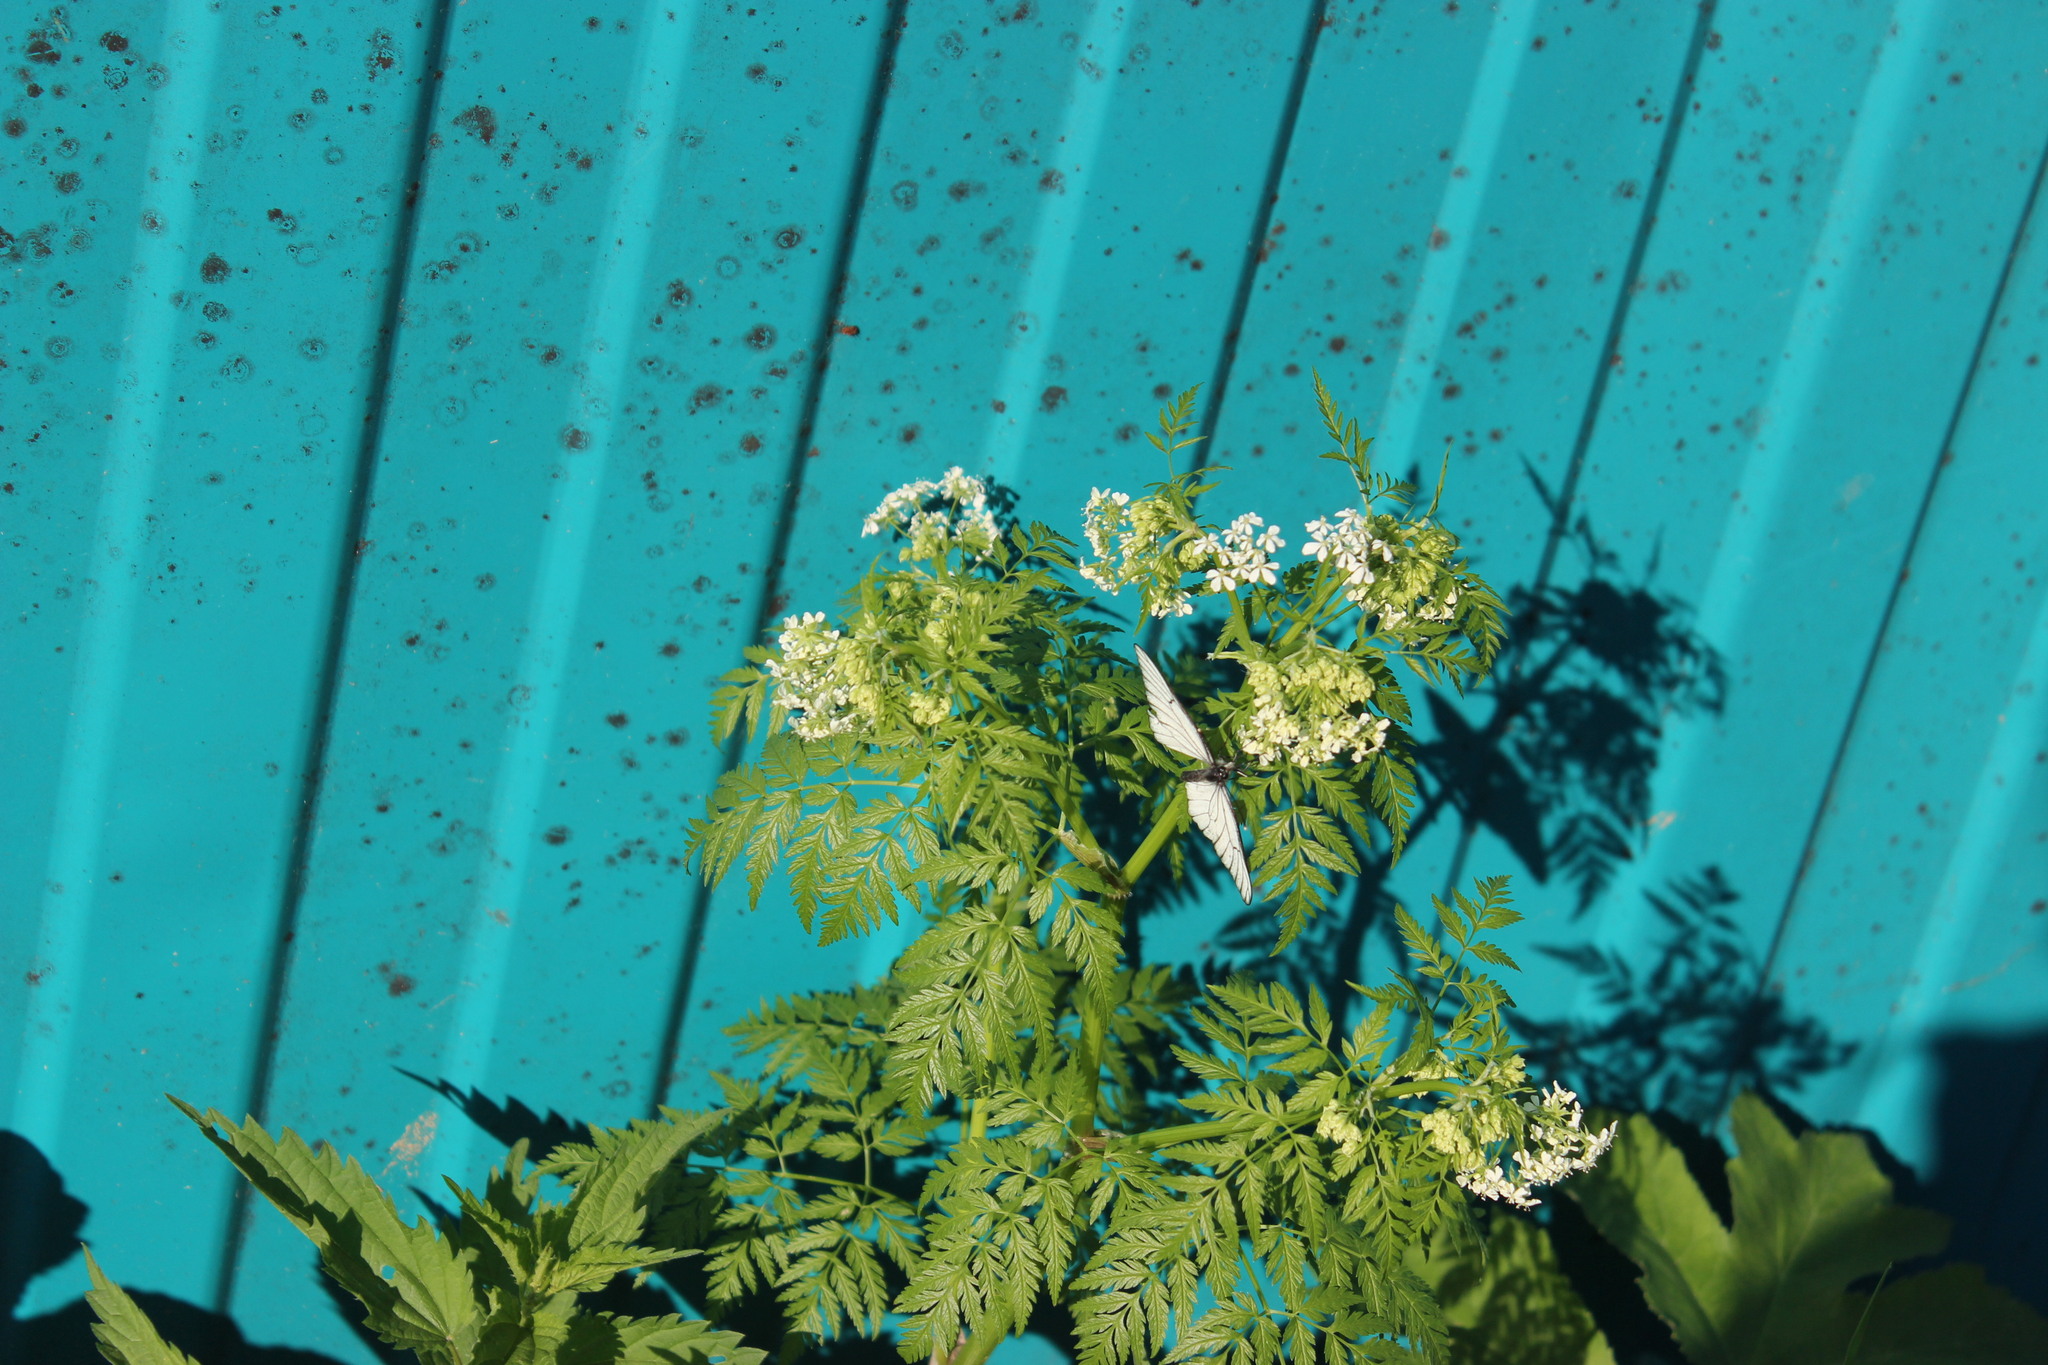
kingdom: Plantae
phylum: Tracheophyta
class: Magnoliopsida
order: Apiales
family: Apiaceae
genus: Anthriscus
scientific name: Anthriscus sylvestris
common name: Cow parsley
